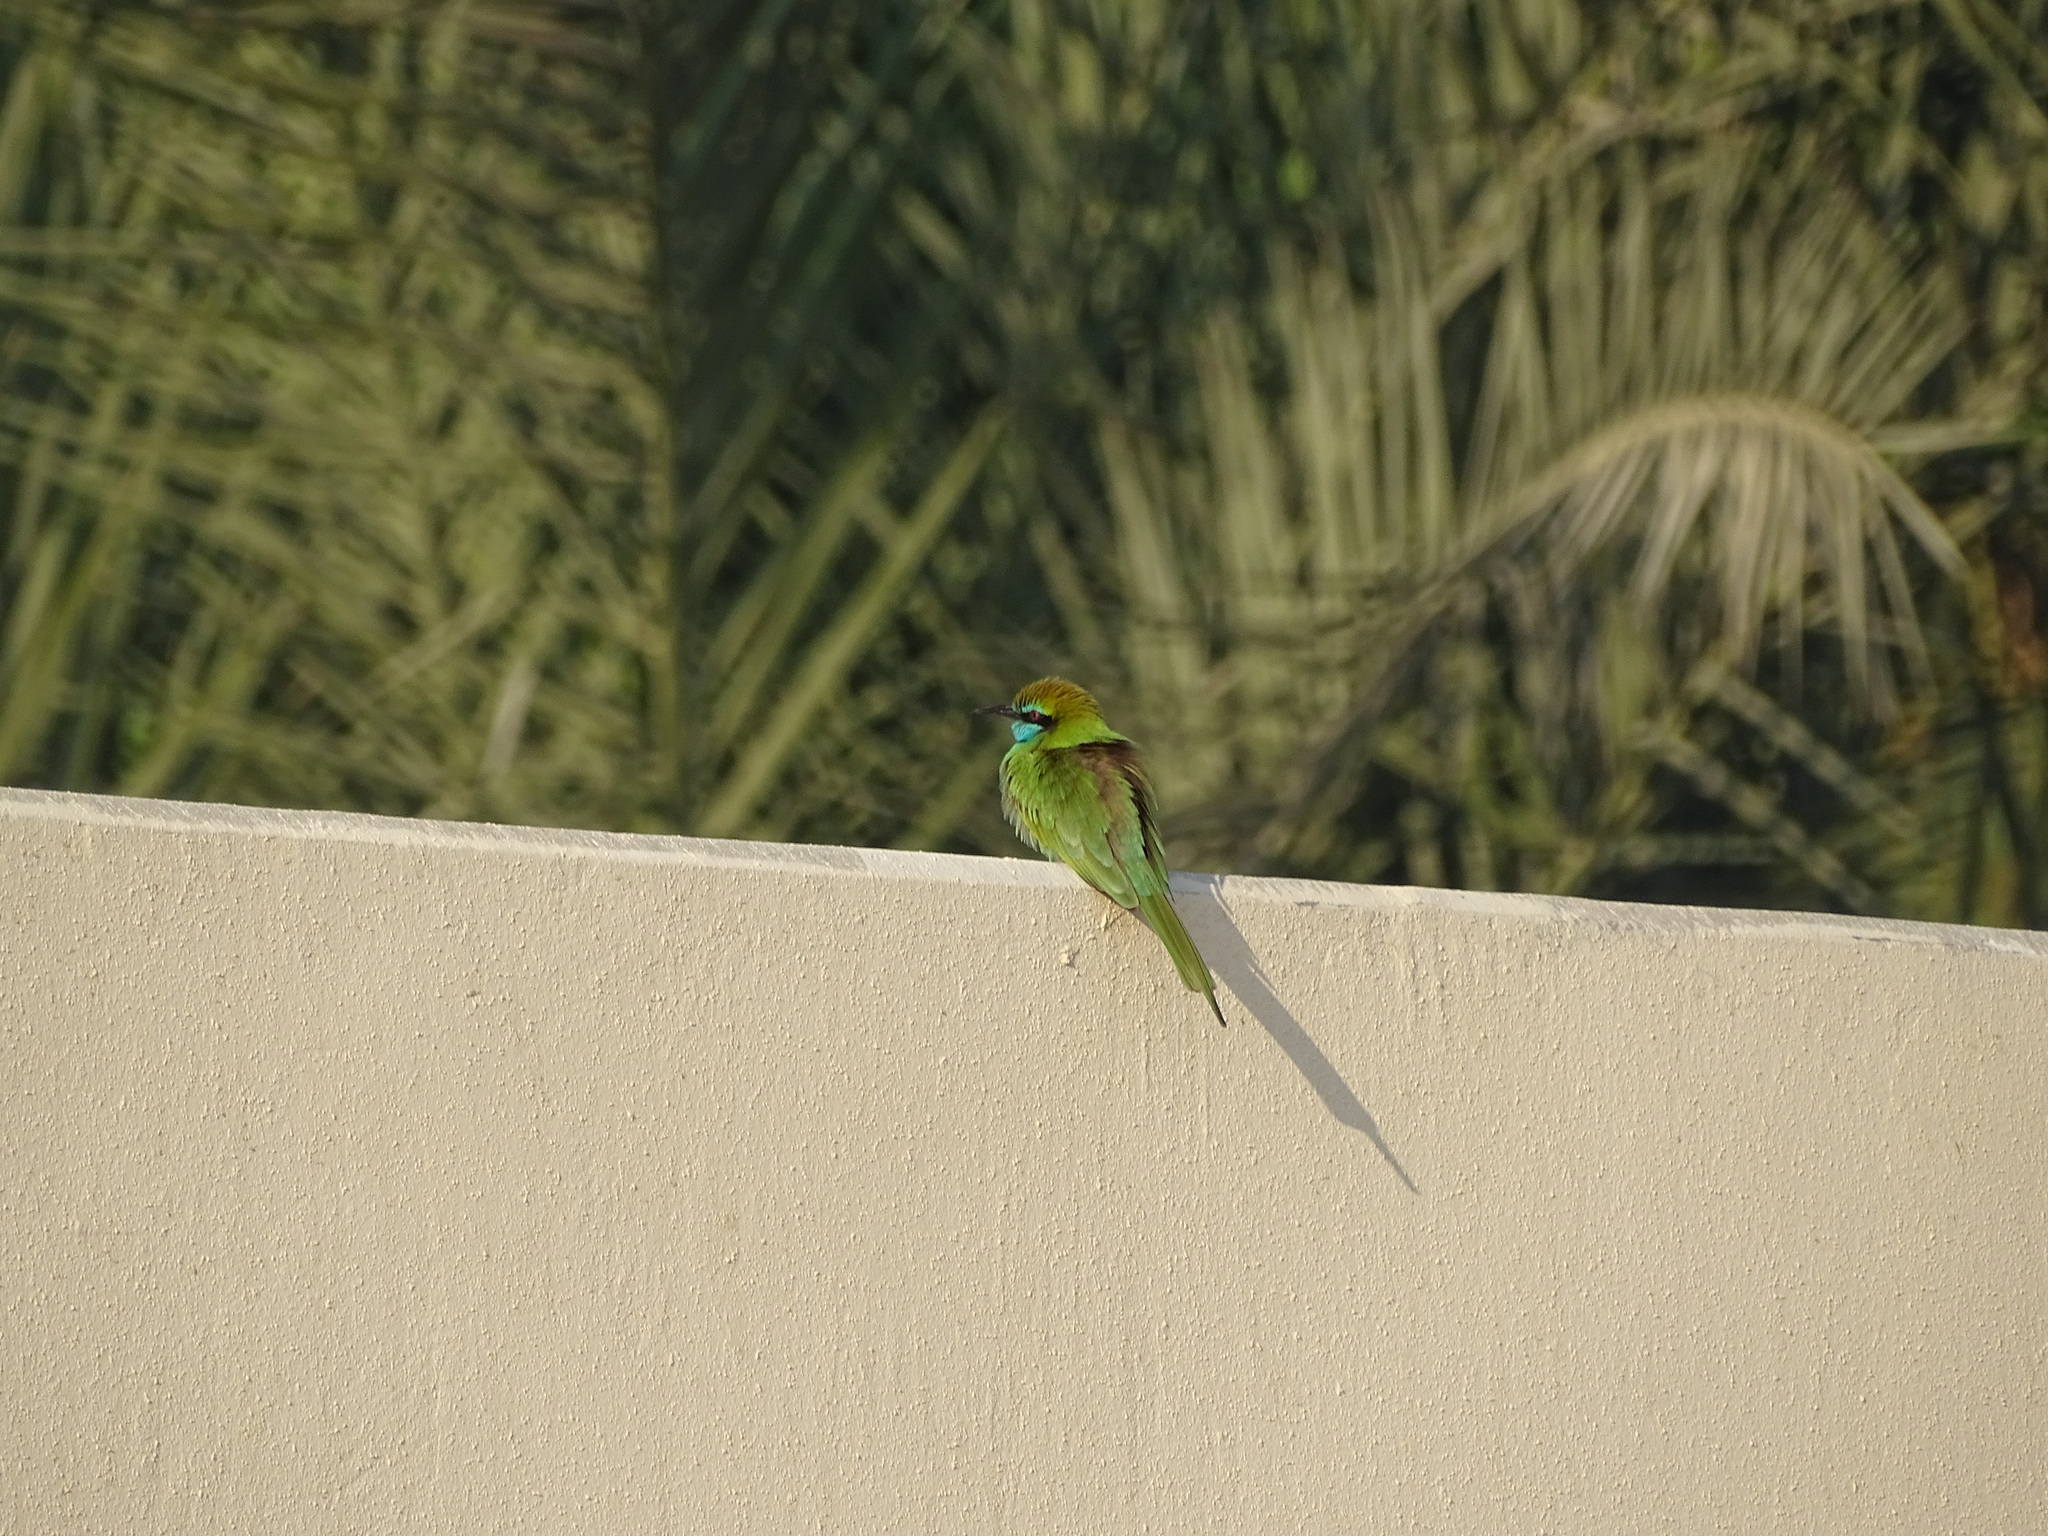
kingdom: Animalia
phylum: Chordata
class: Aves
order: Coraciiformes
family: Meropidae
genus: Merops
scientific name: Merops cyanophrys
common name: Arabian green bee-eater
